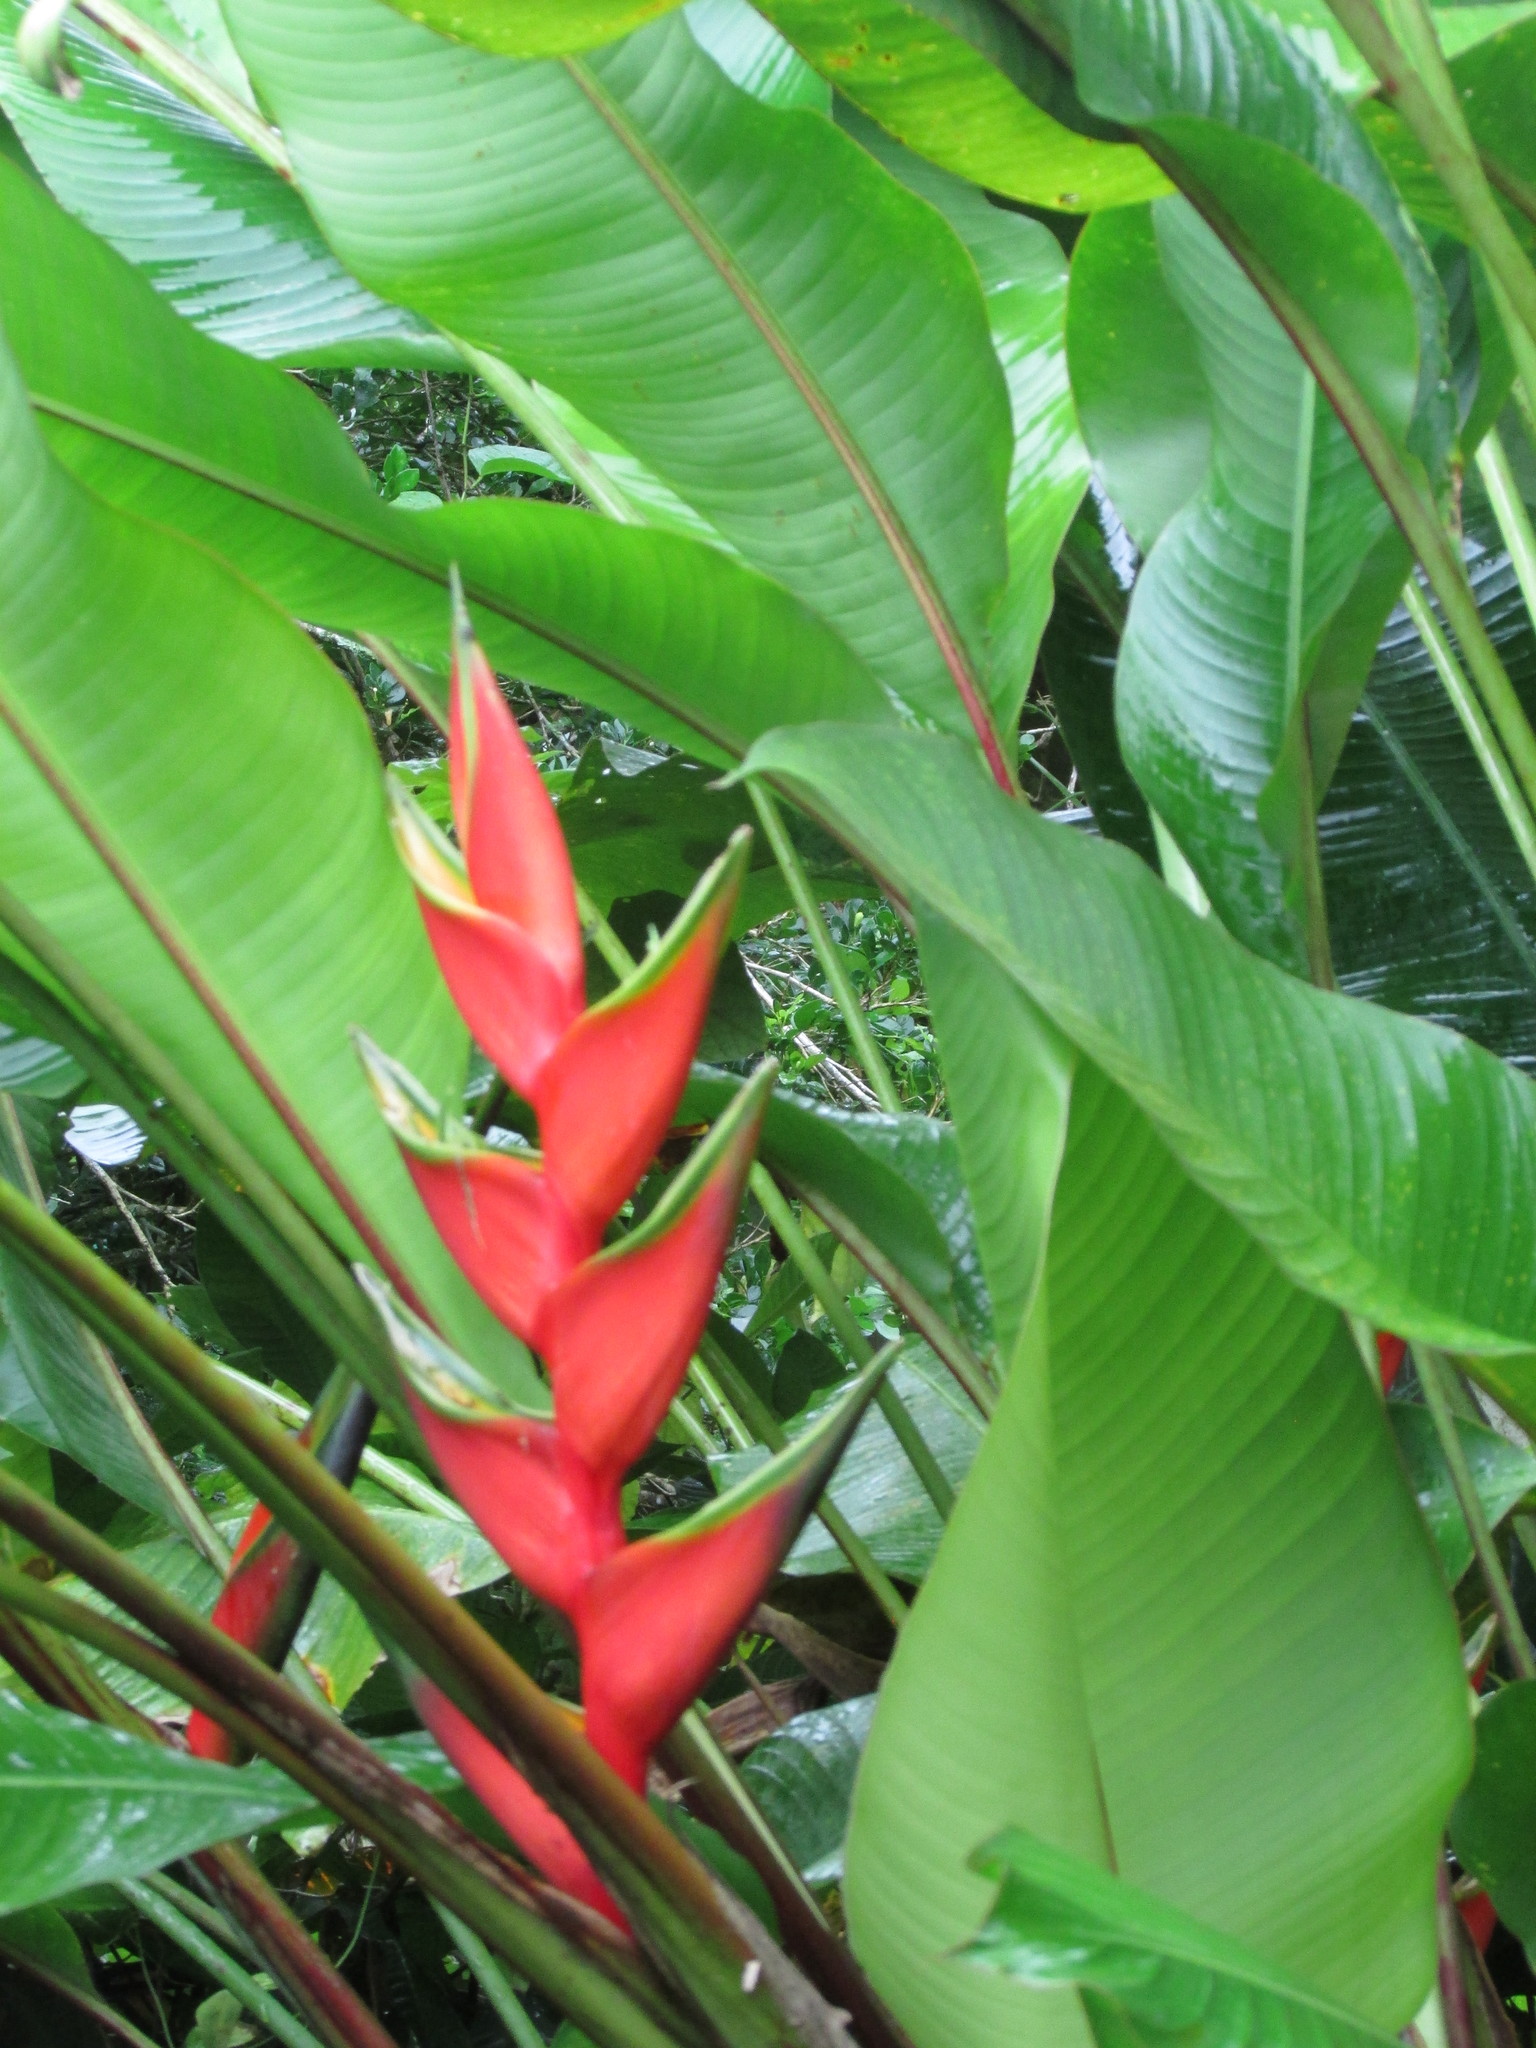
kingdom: Plantae
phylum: Tracheophyta
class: Liliopsida
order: Zingiberales
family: Heliconiaceae
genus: Heliconia
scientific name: Heliconia bihai
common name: Macaw flower
